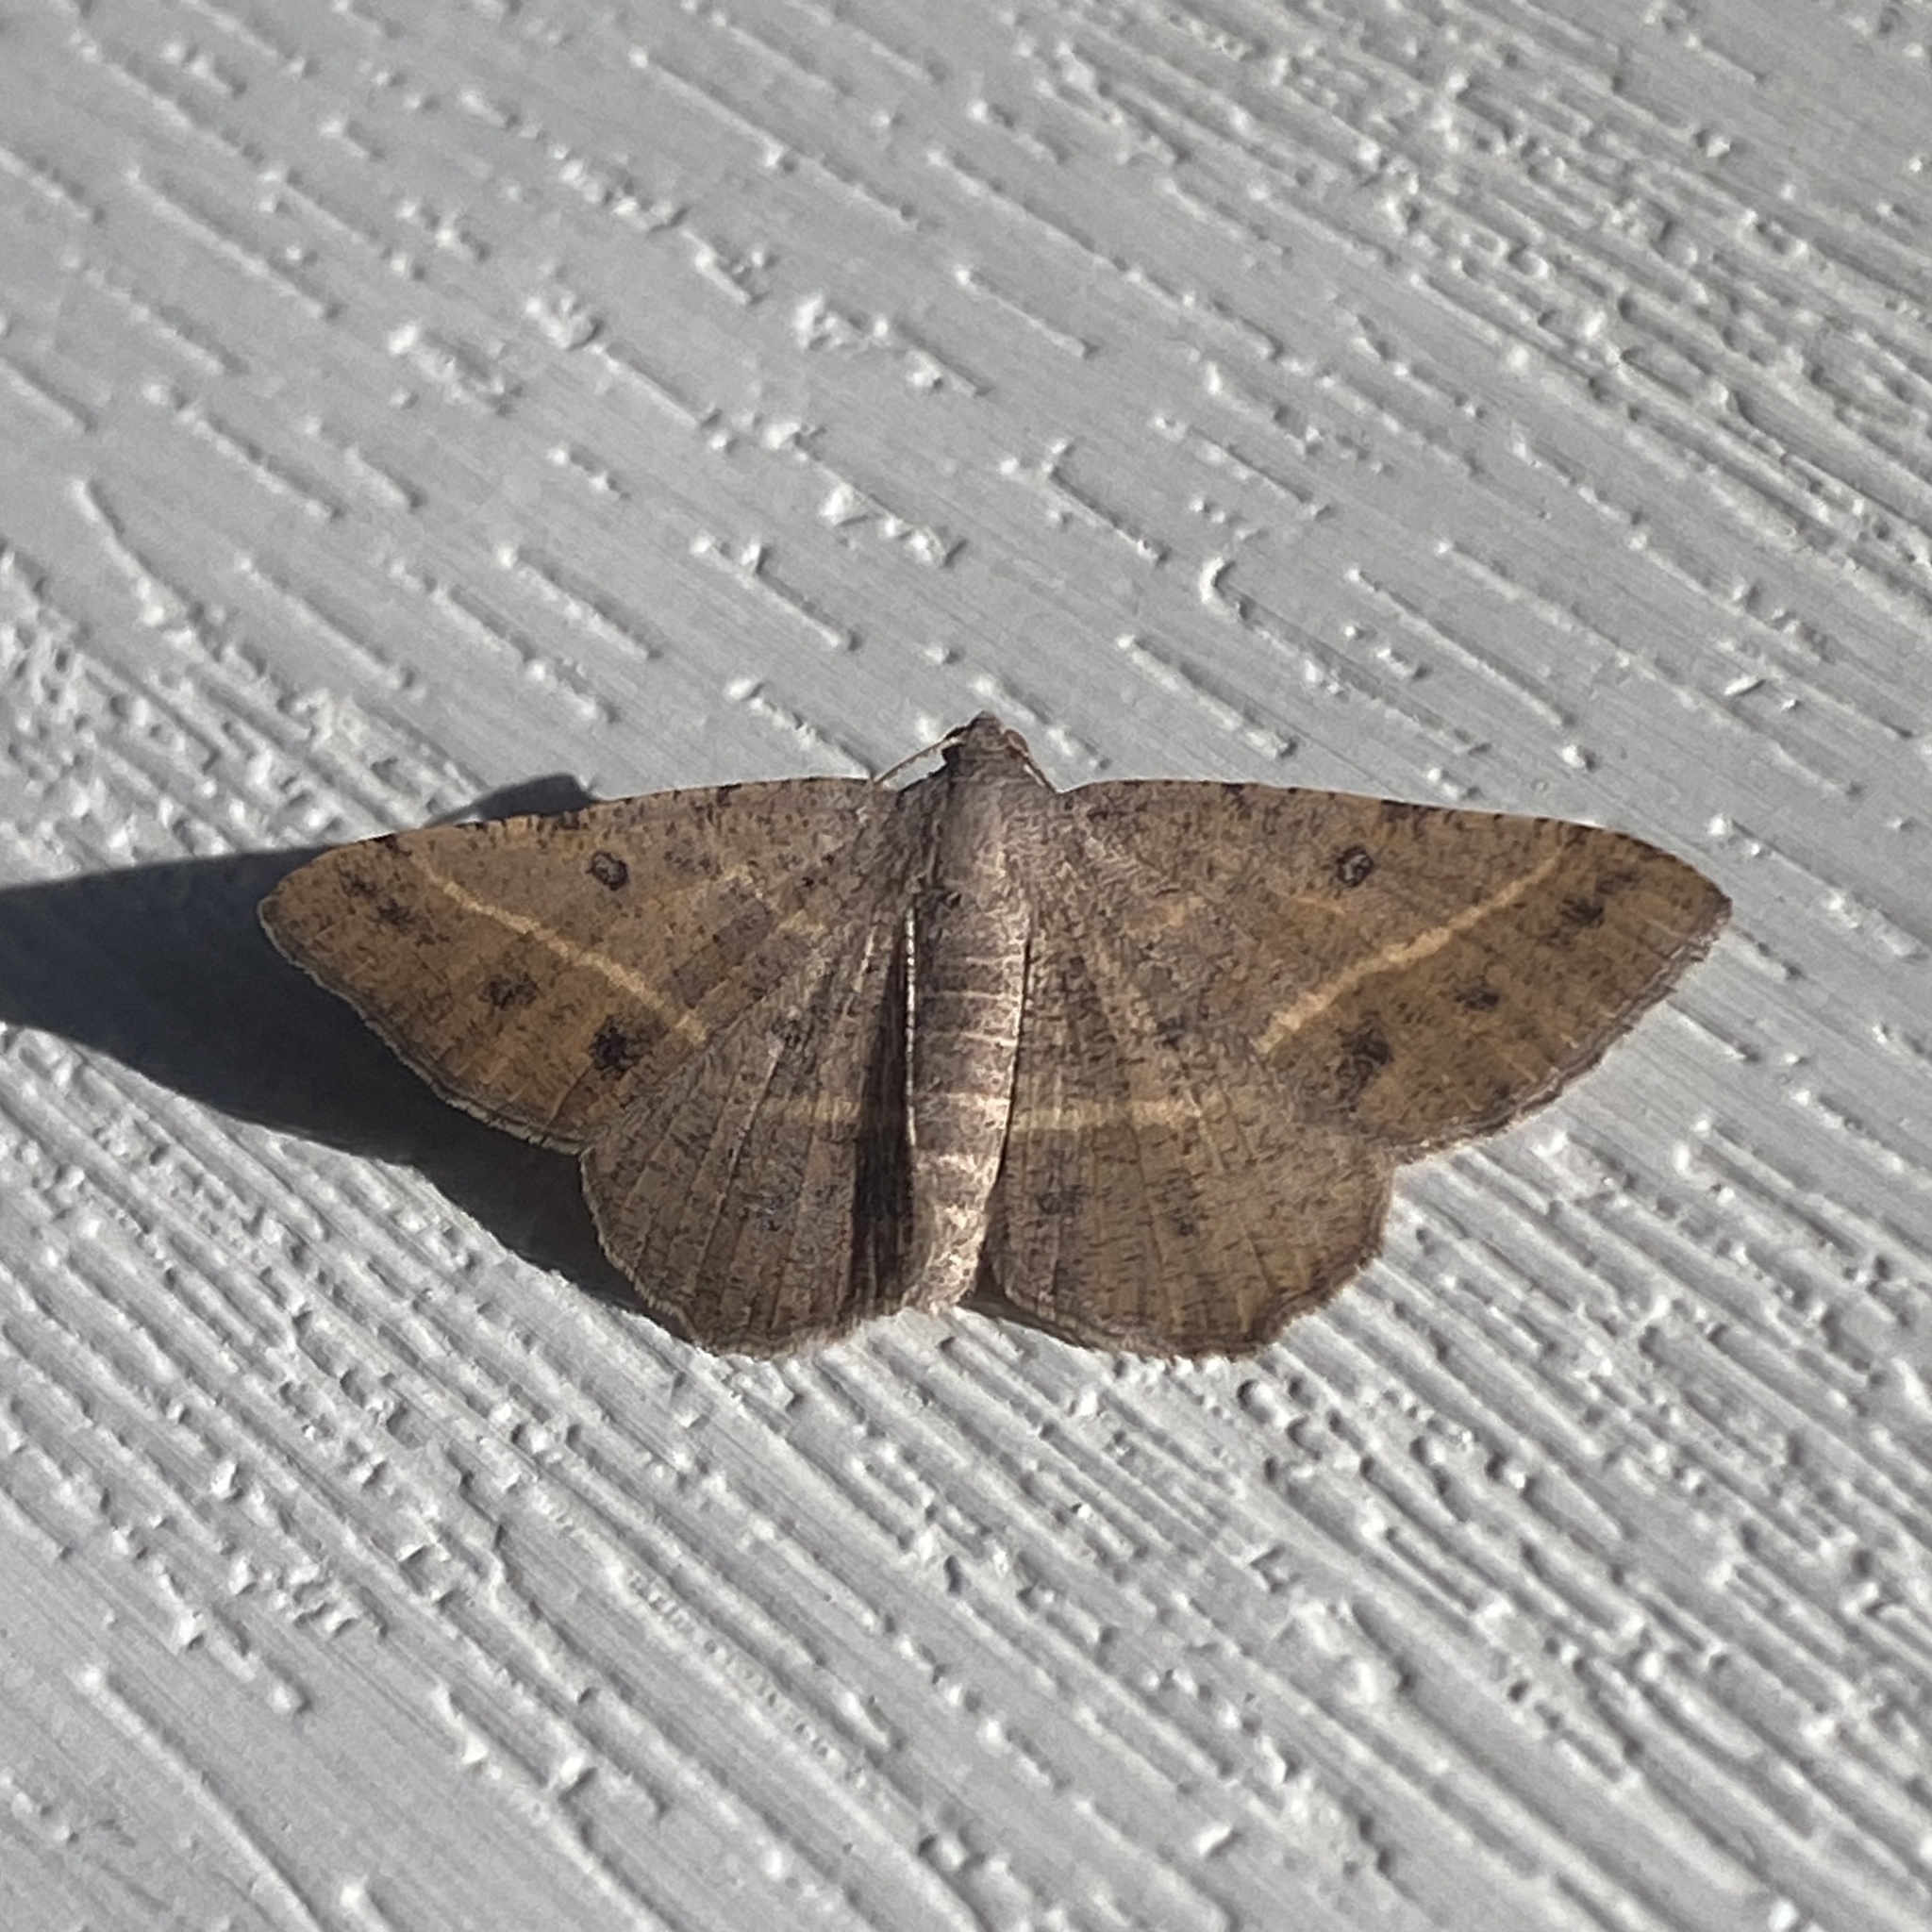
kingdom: Animalia
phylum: Arthropoda
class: Insecta
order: Lepidoptera
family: Geometridae
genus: Digrammia
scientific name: Digrammia irrorata
